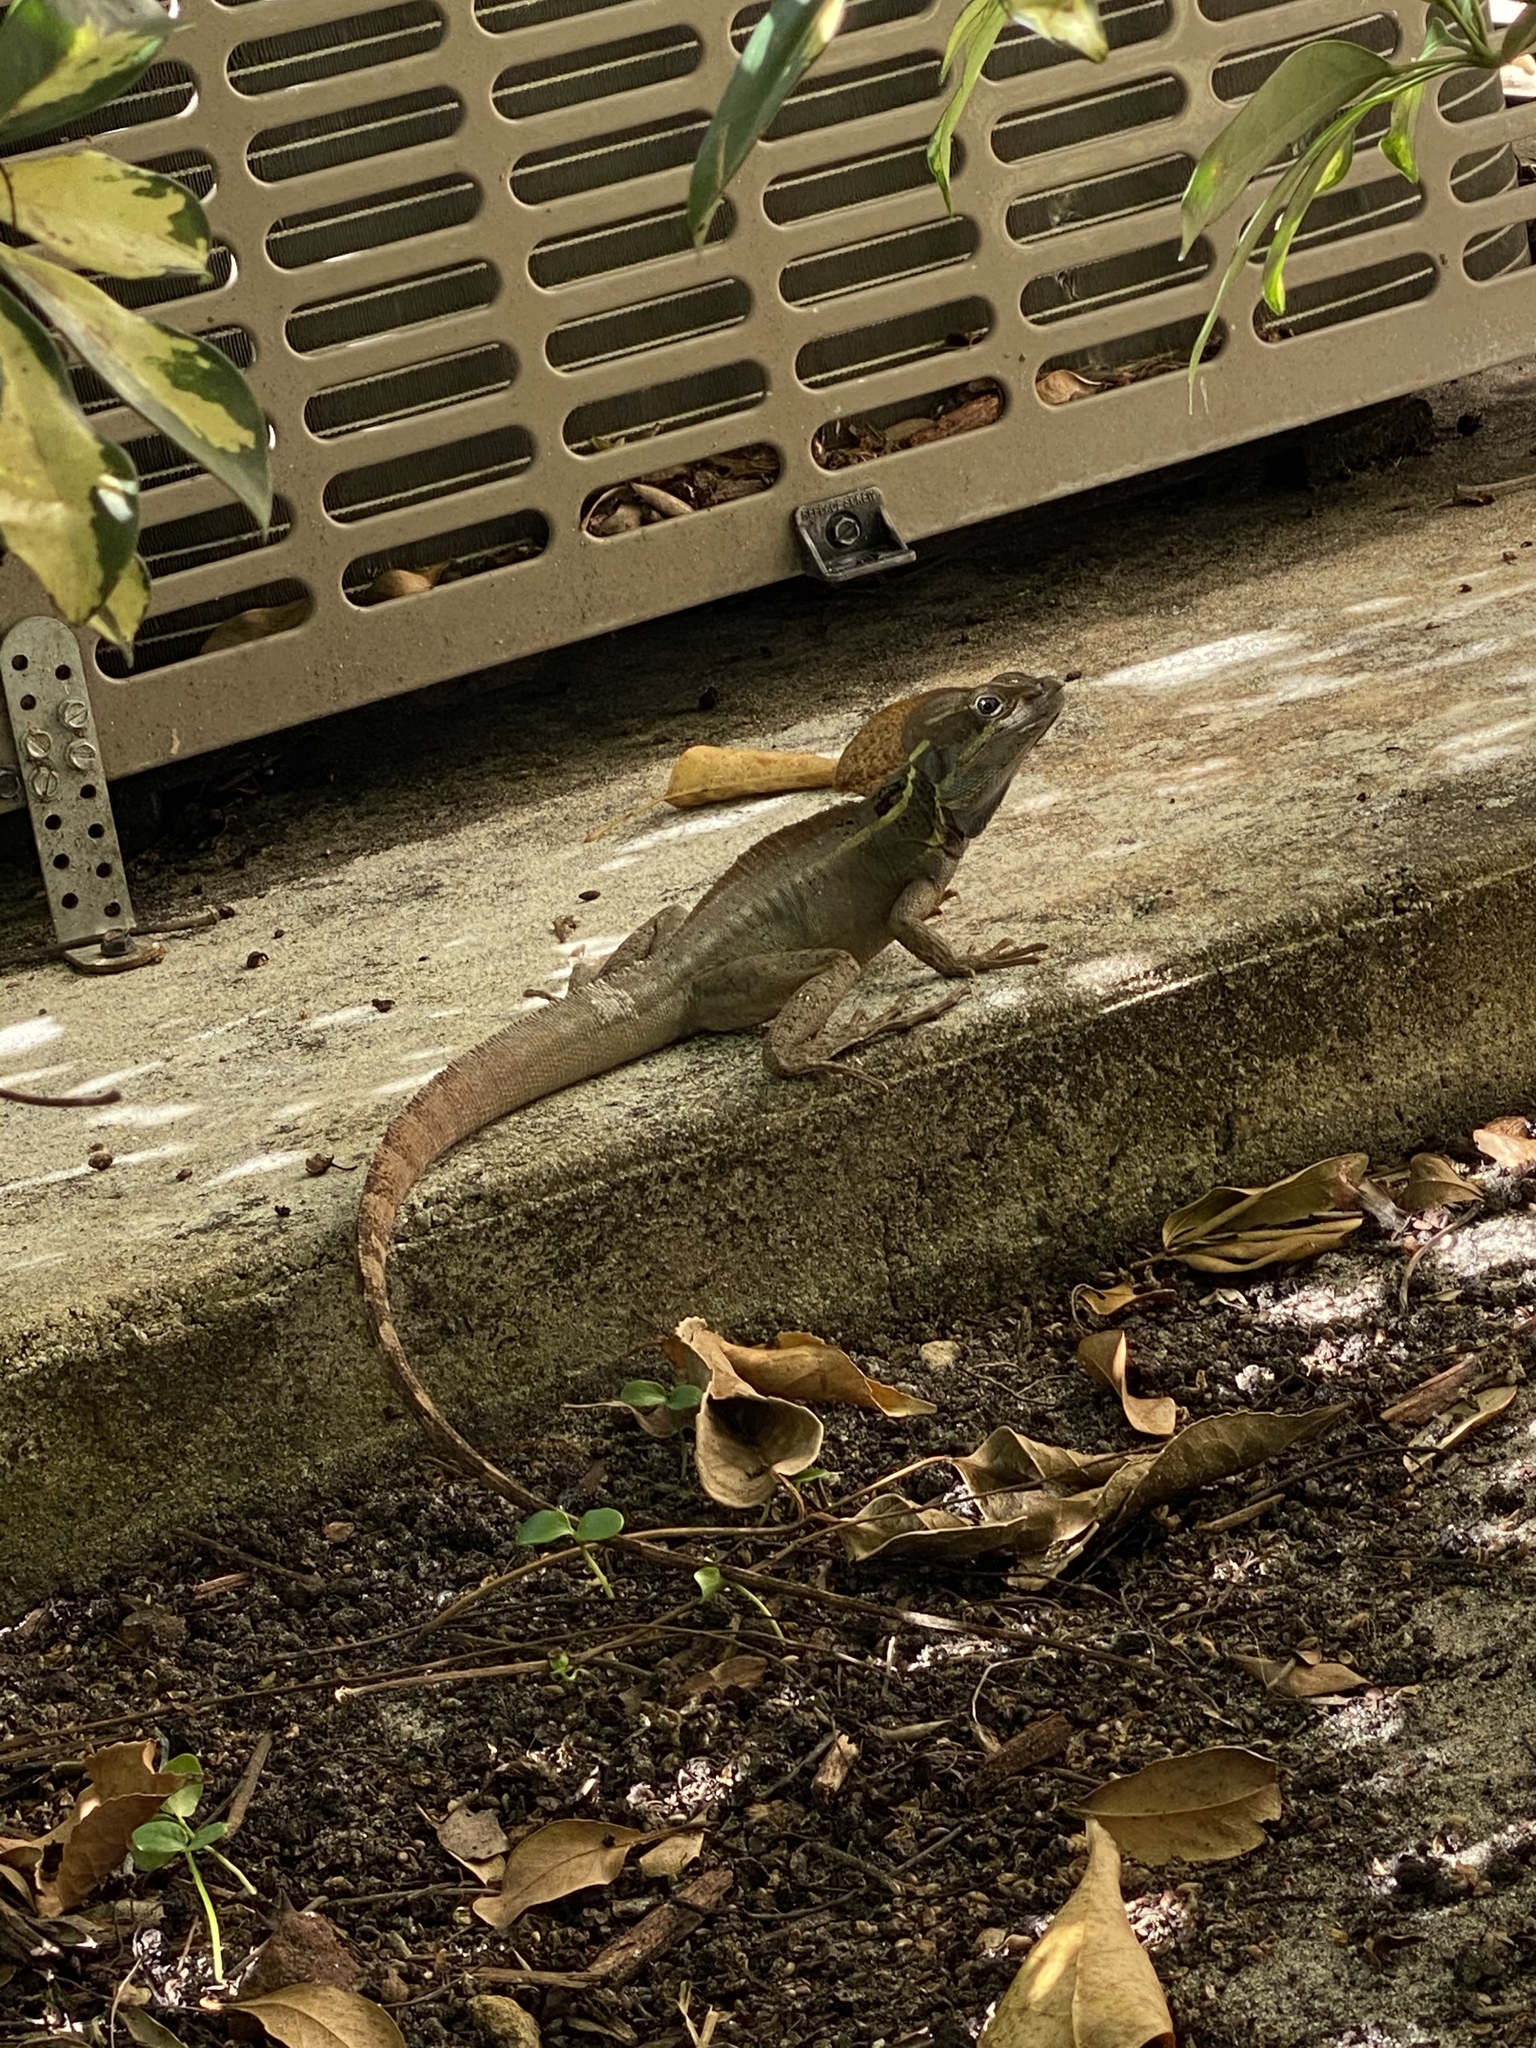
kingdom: Animalia
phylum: Chordata
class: Squamata
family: Corytophanidae
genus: Basiliscus
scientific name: Basiliscus vittatus
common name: Brown basilisk
